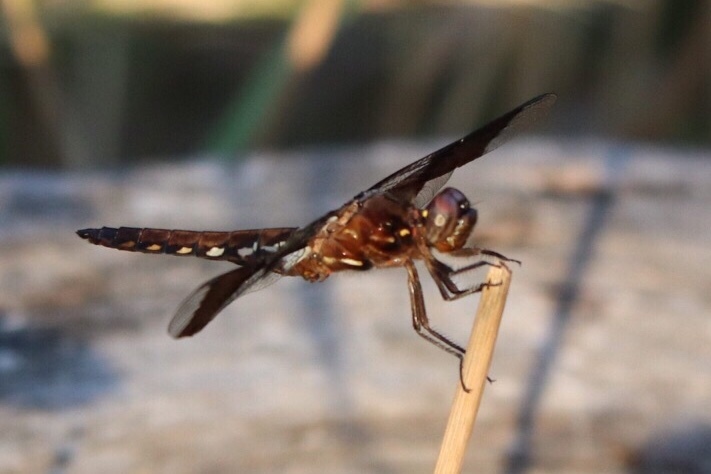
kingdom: Animalia
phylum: Arthropoda
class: Insecta
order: Odonata
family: Libellulidae
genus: Plathemis
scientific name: Plathemis lydia
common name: Common whitetail
